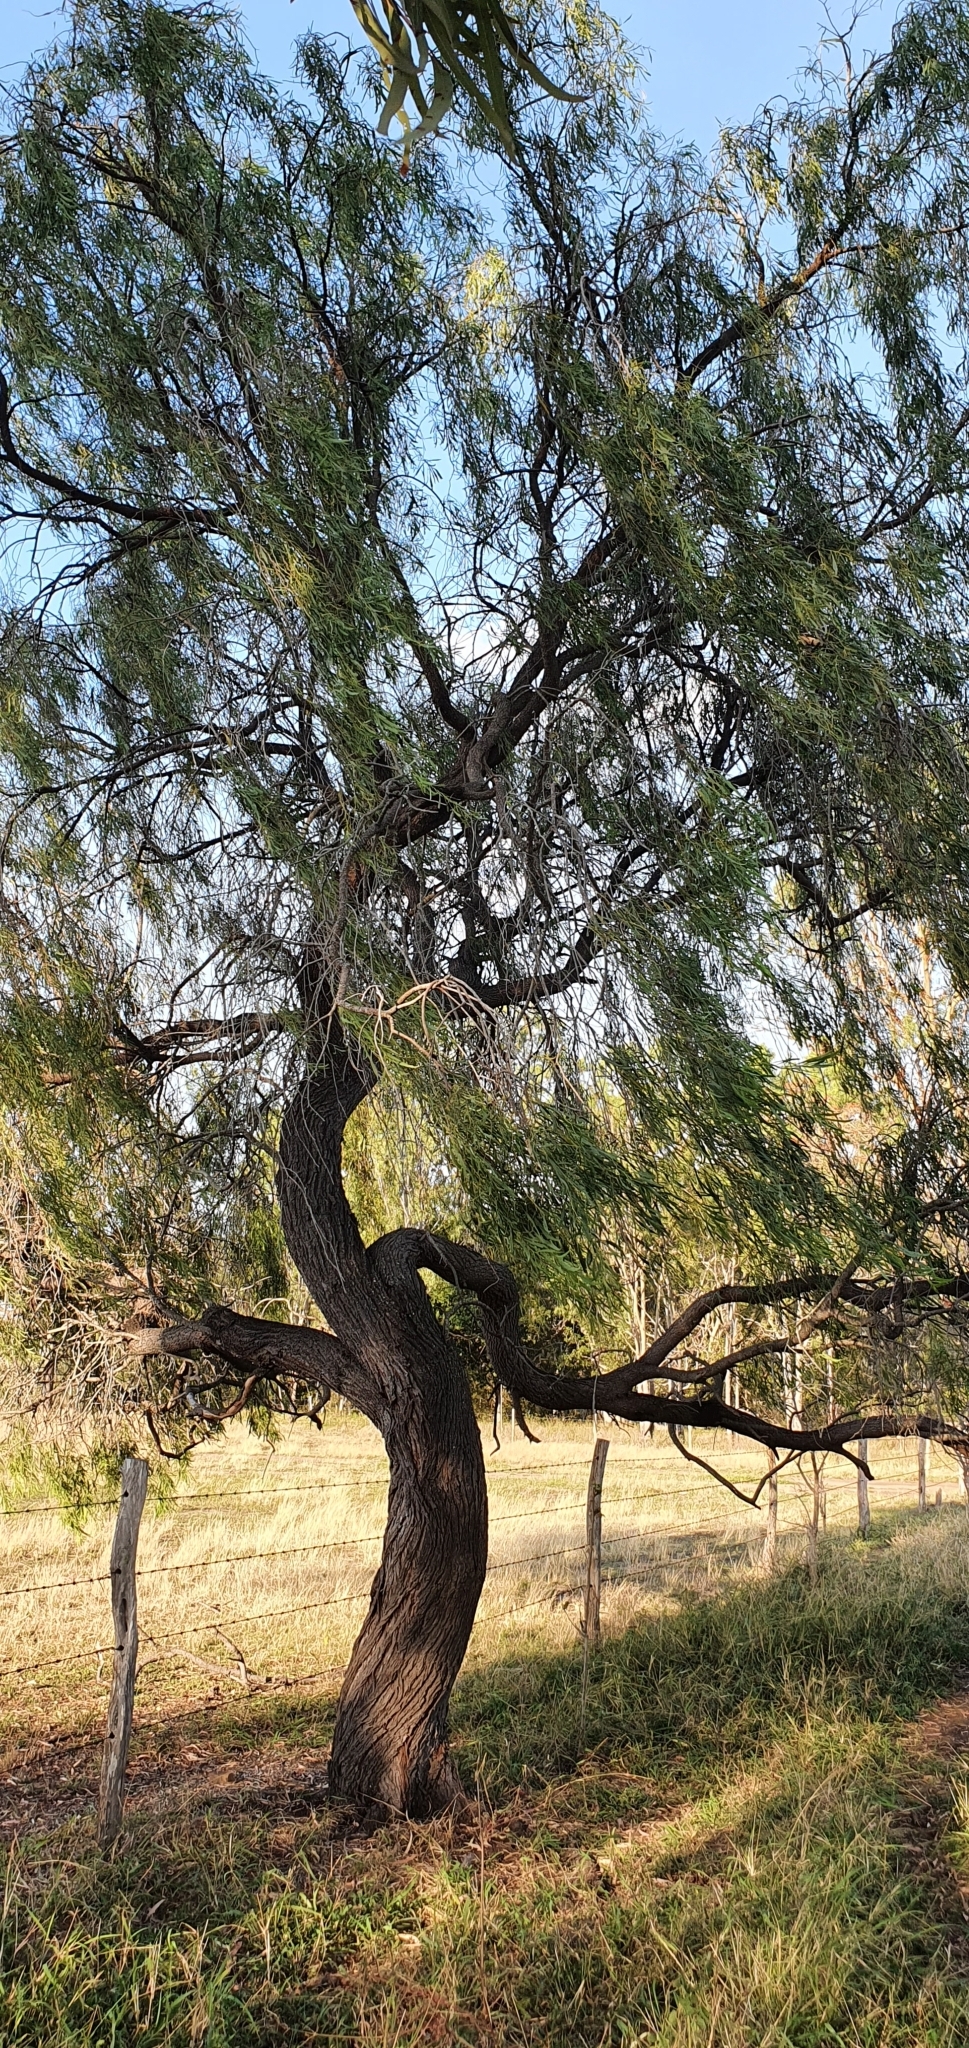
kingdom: Plantae
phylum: Tracheophyta
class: Magnoliopsida
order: Fabales
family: Fabaceae
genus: Acacia
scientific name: Acacia salicina
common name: Broughton willow wattle
